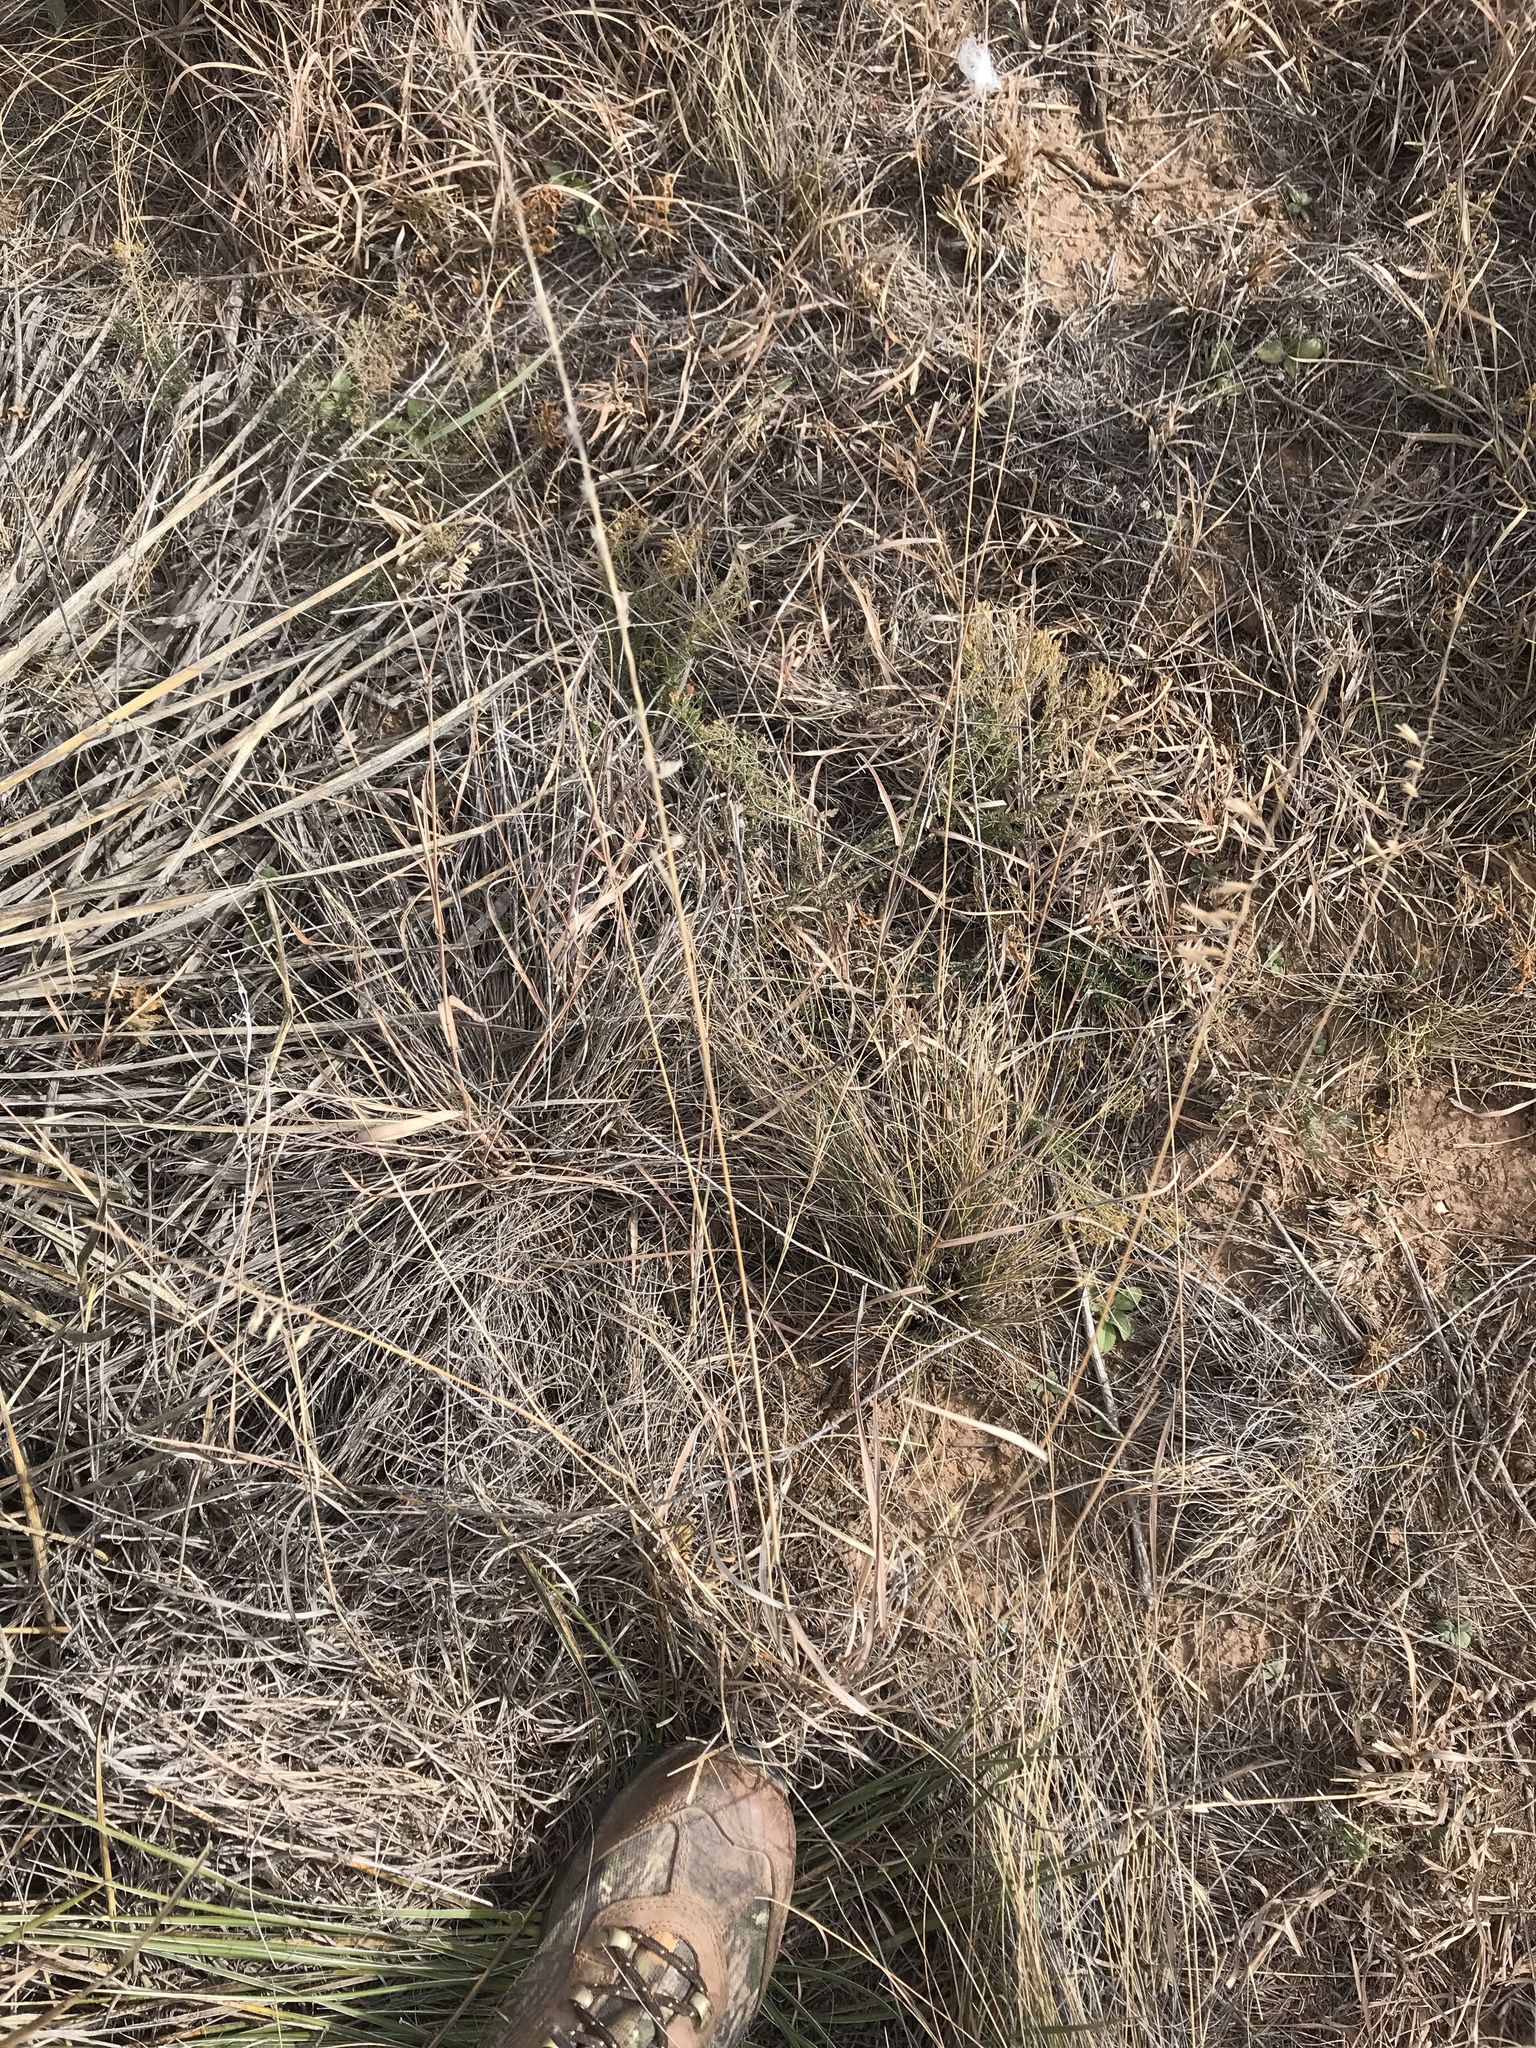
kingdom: Plantae
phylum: Tracheophyta
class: Liliopsida
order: Poales
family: Poaceae
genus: Bouteloua
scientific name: Bouteloua curtipendula
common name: Side-oats grama
